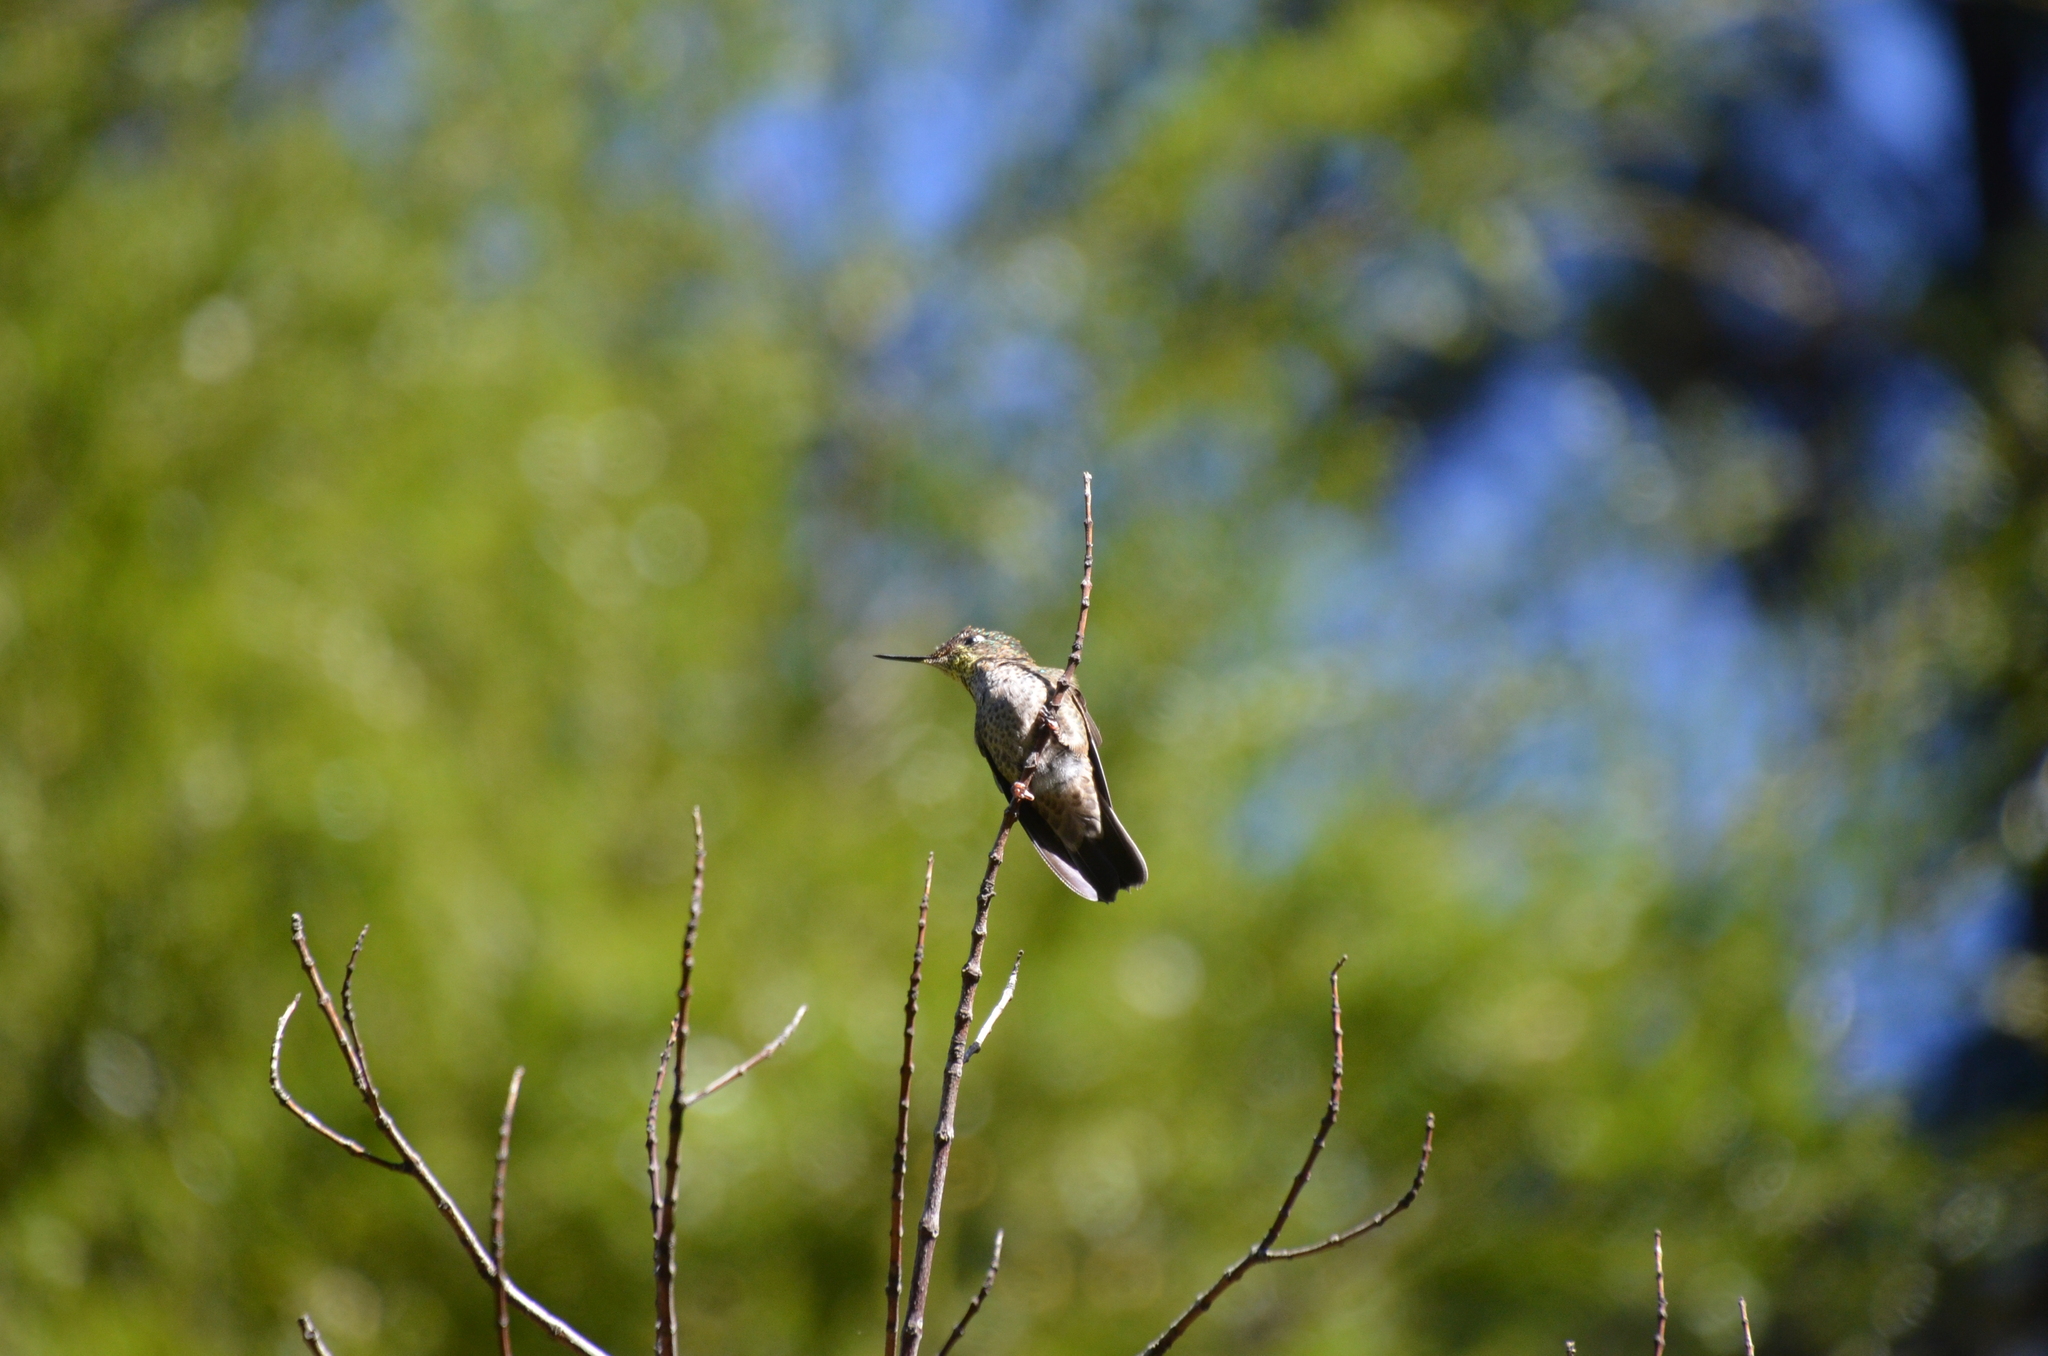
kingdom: Animalia
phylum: Chordata
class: Aves
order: Apodiformes
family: Trochilidae
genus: Sephanoides
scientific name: Sephanoides sephaniodes
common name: Green-backed firecrown
